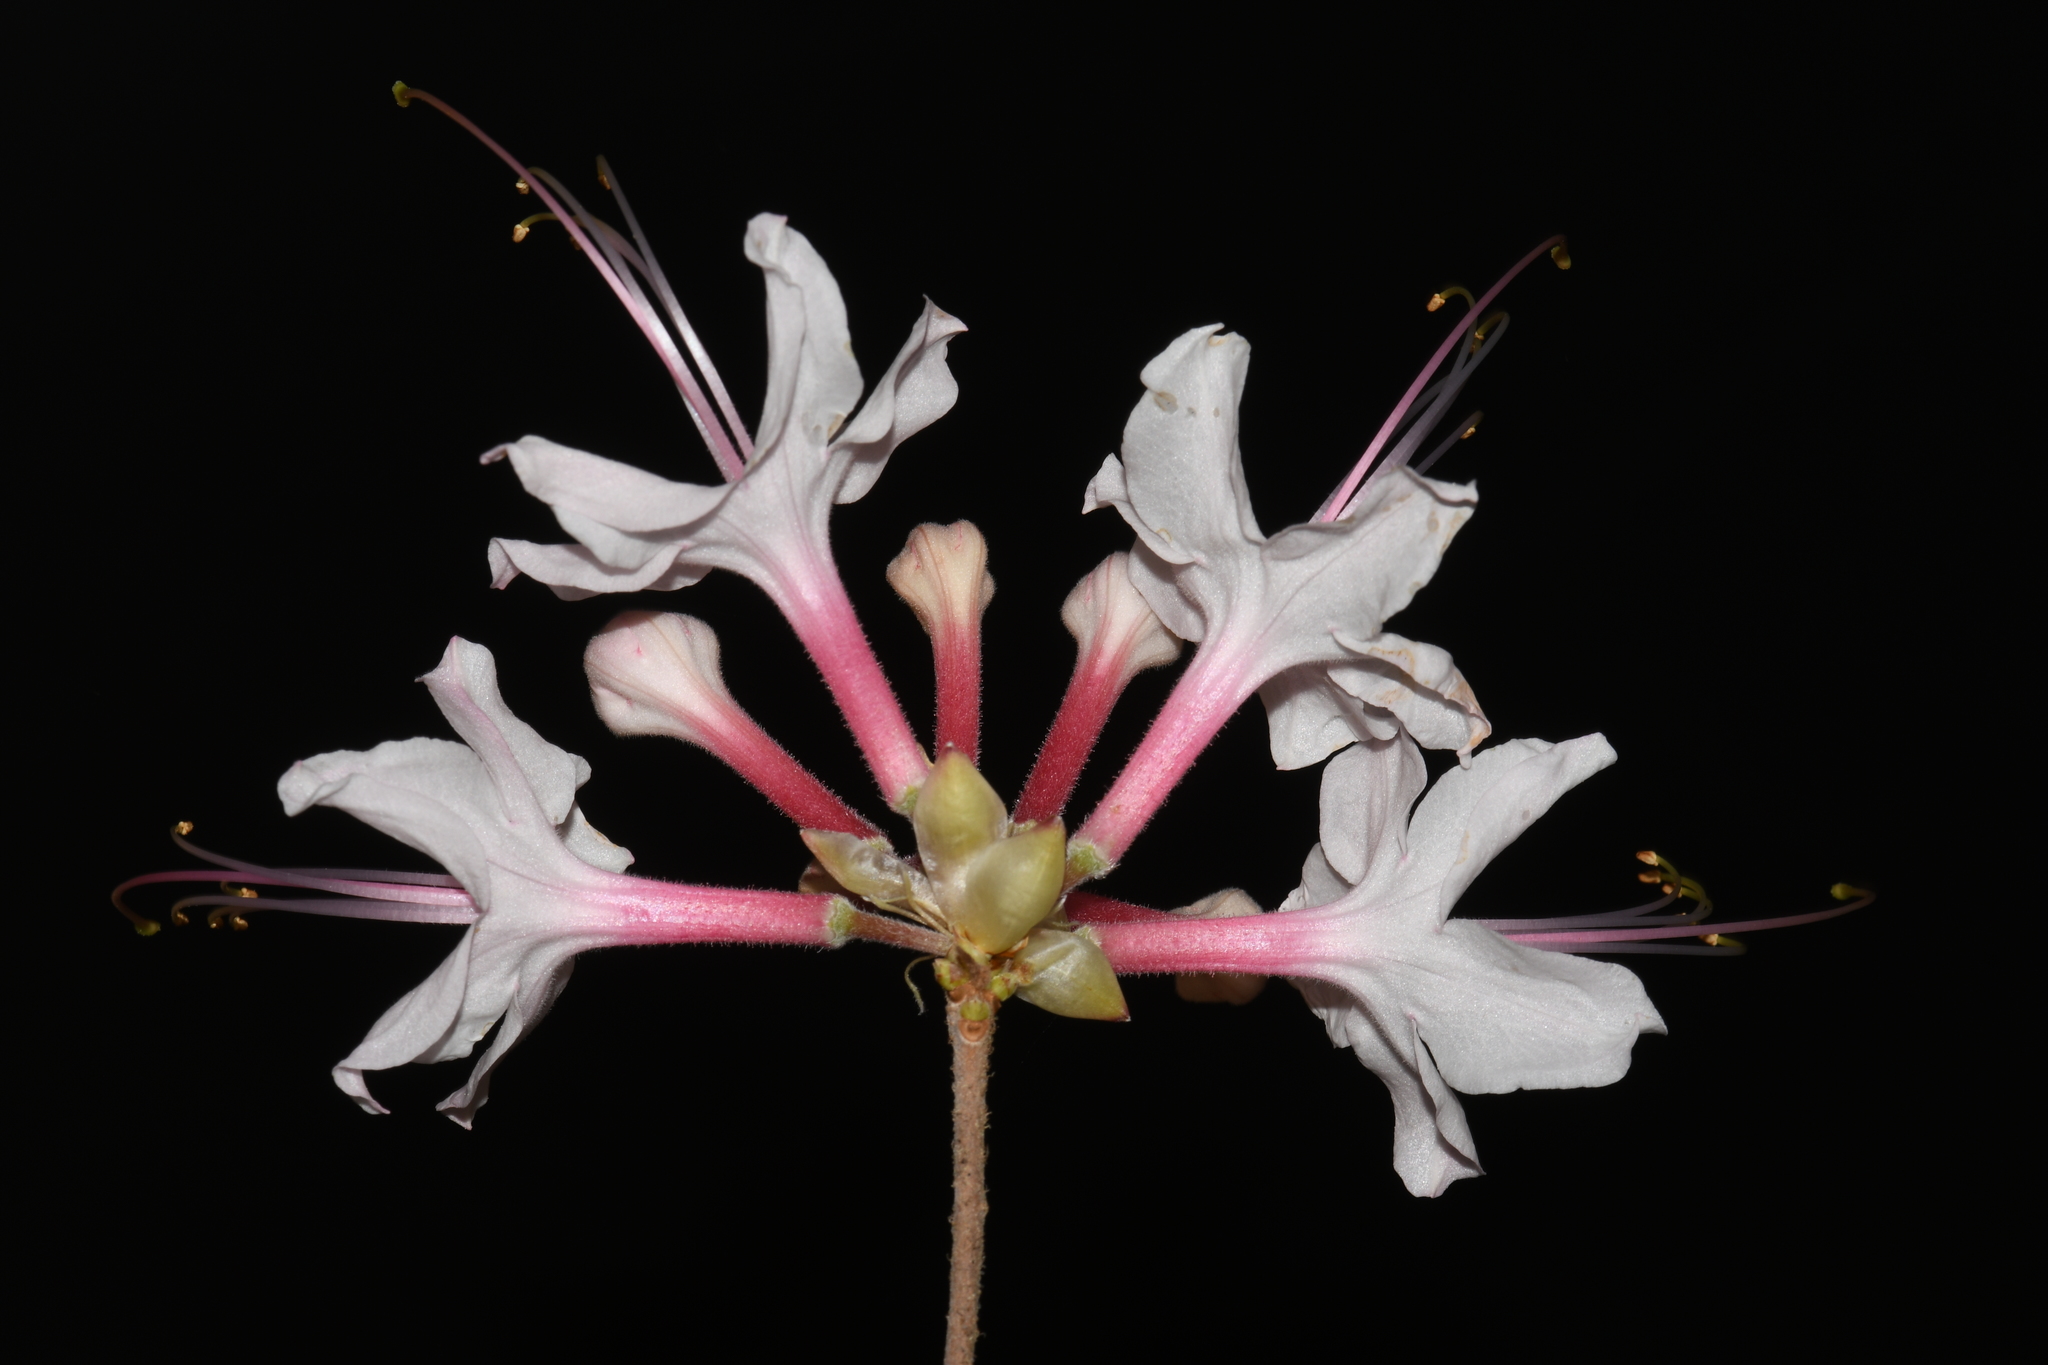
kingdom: Plantae
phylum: Tracheophyta
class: Magnoliopsida
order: Ericales
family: Ericaceae
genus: Rhododendron
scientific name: Rhododendron canescens
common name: Mountain azalea
